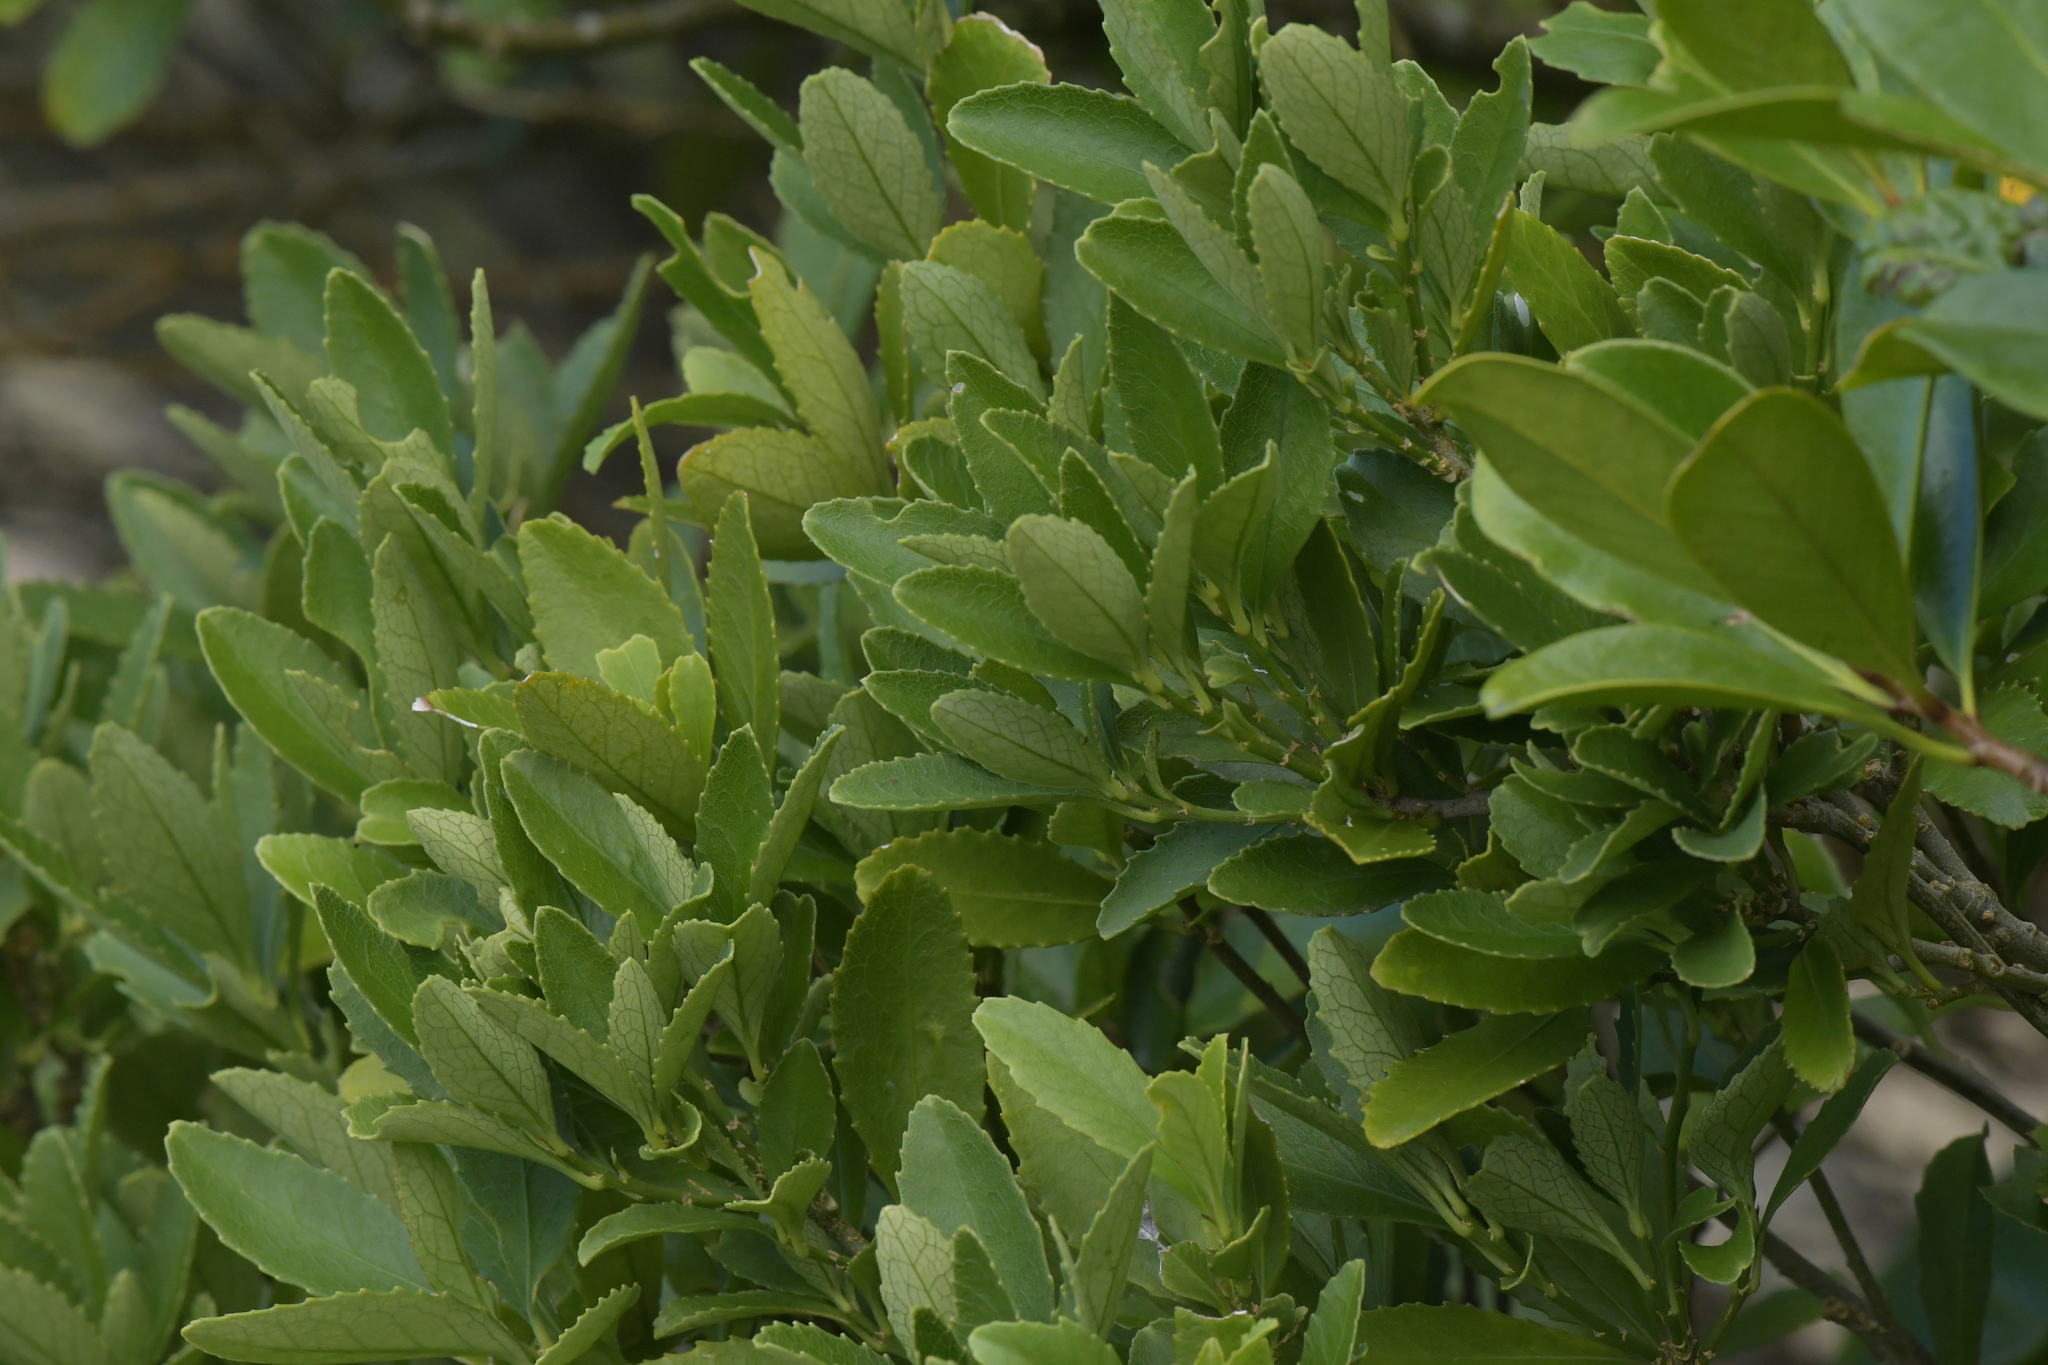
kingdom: Plantae
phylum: Tracheophyta
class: Magnoliopsida
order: Malpighiales
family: Violaceae
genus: Melicytus
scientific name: Melicytus chathamicus
